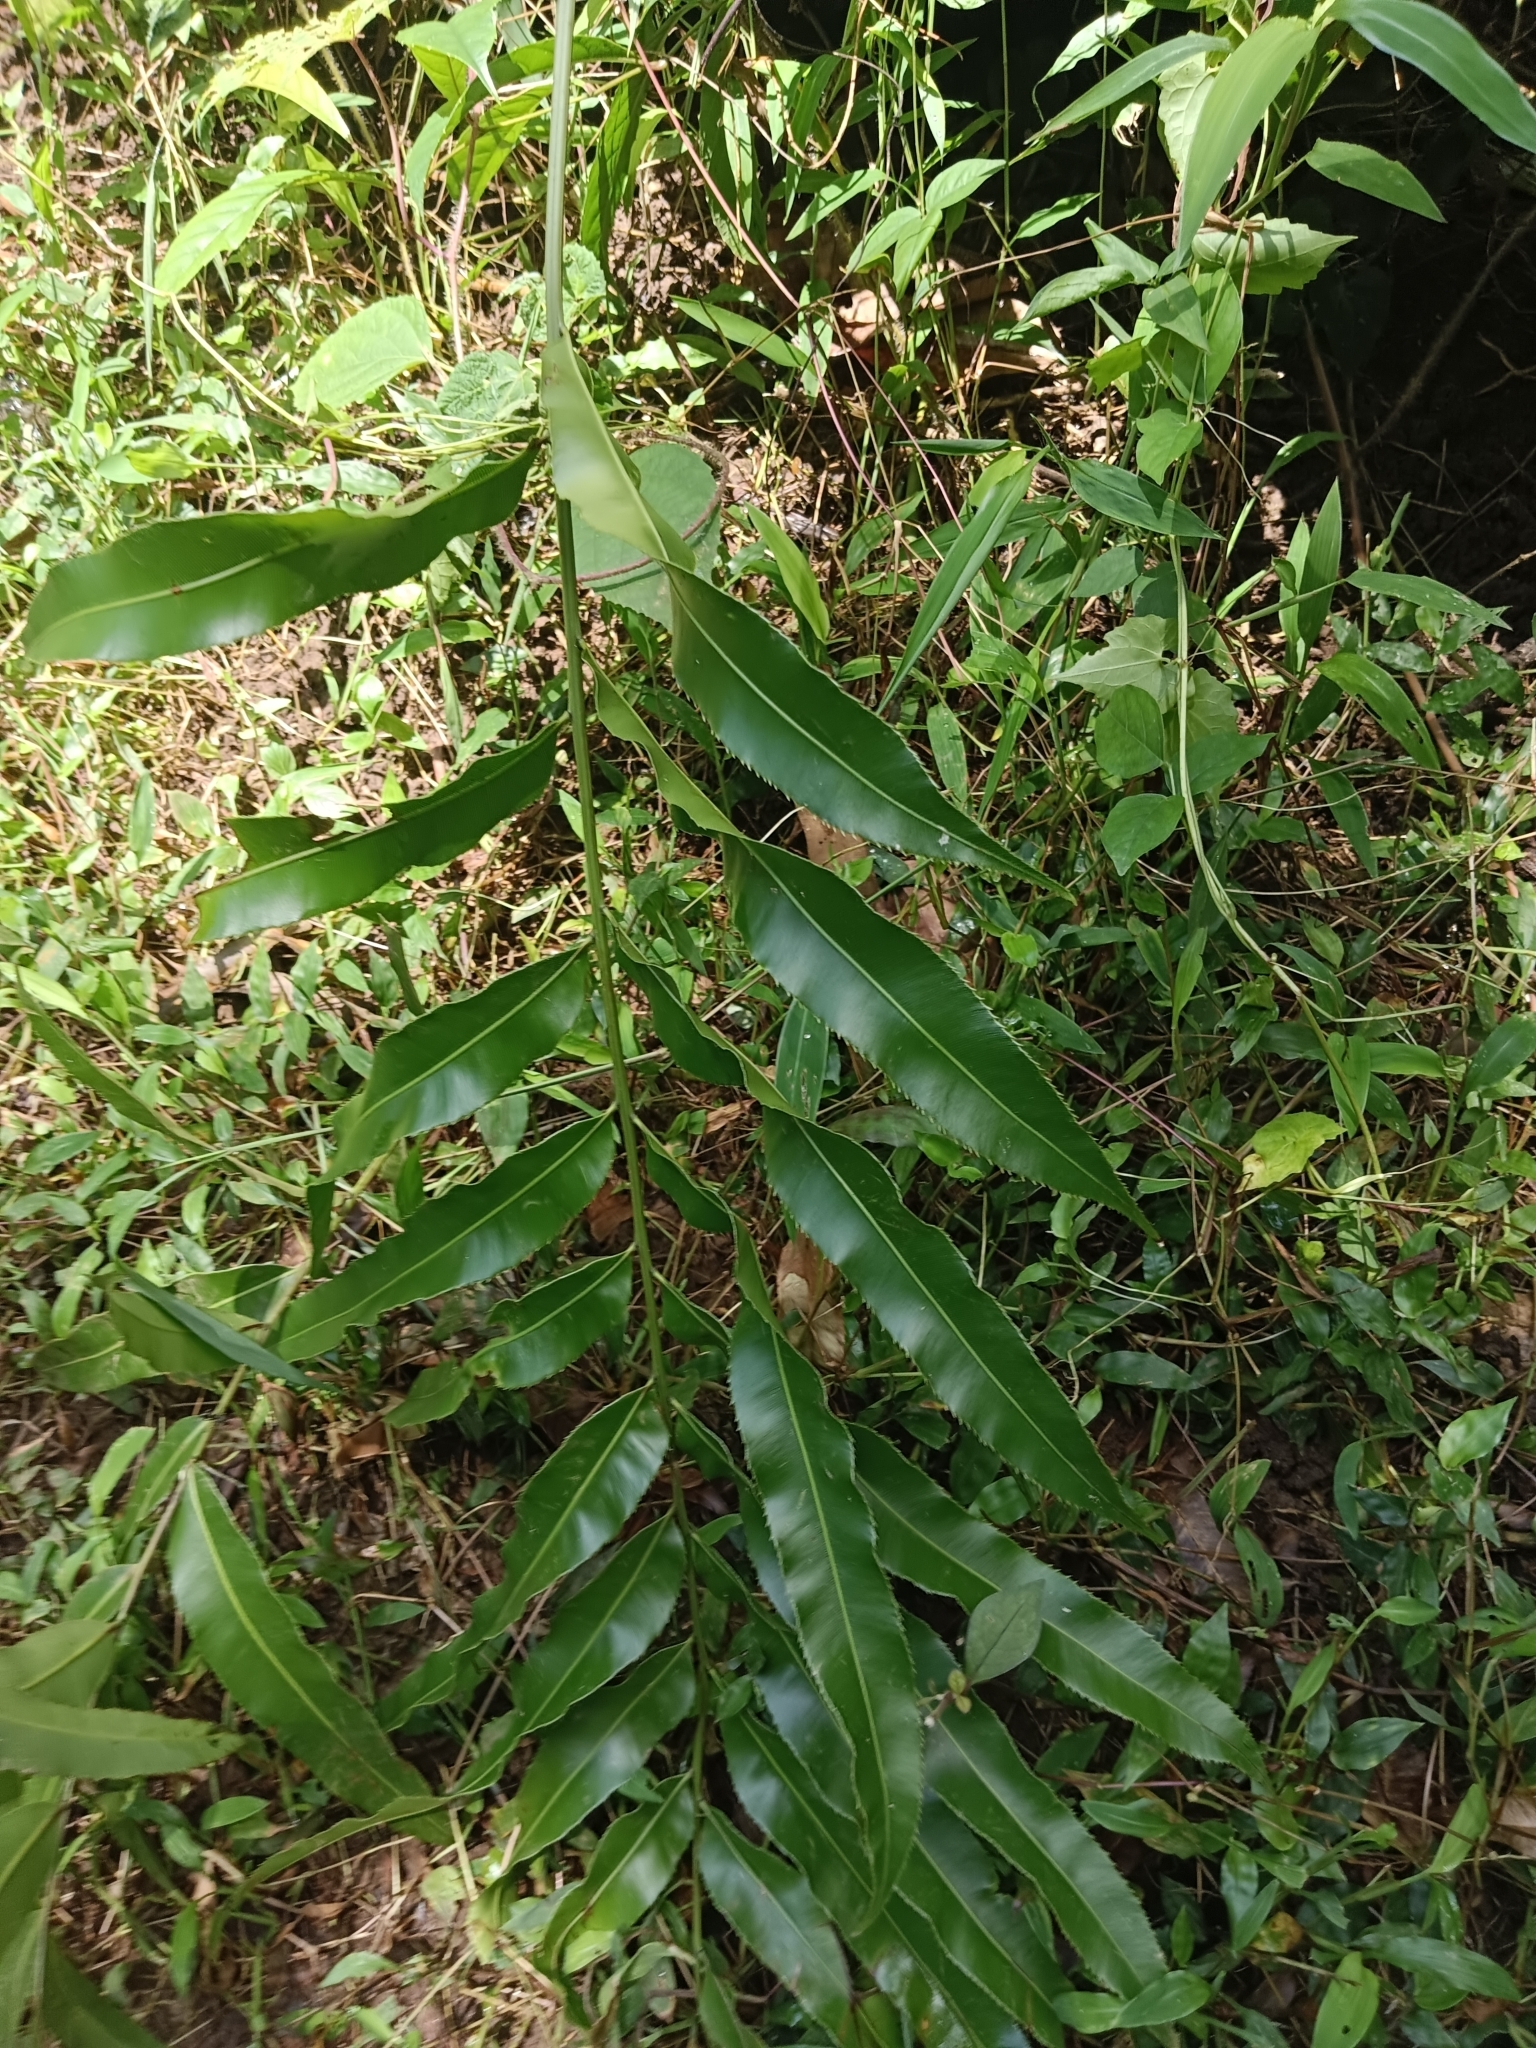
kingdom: Plantae
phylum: Tracheophyta
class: Polypodiopsida
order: Polypodiales
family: Blechnaceae
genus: Stenochlaena
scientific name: Stenochlaena palustris
